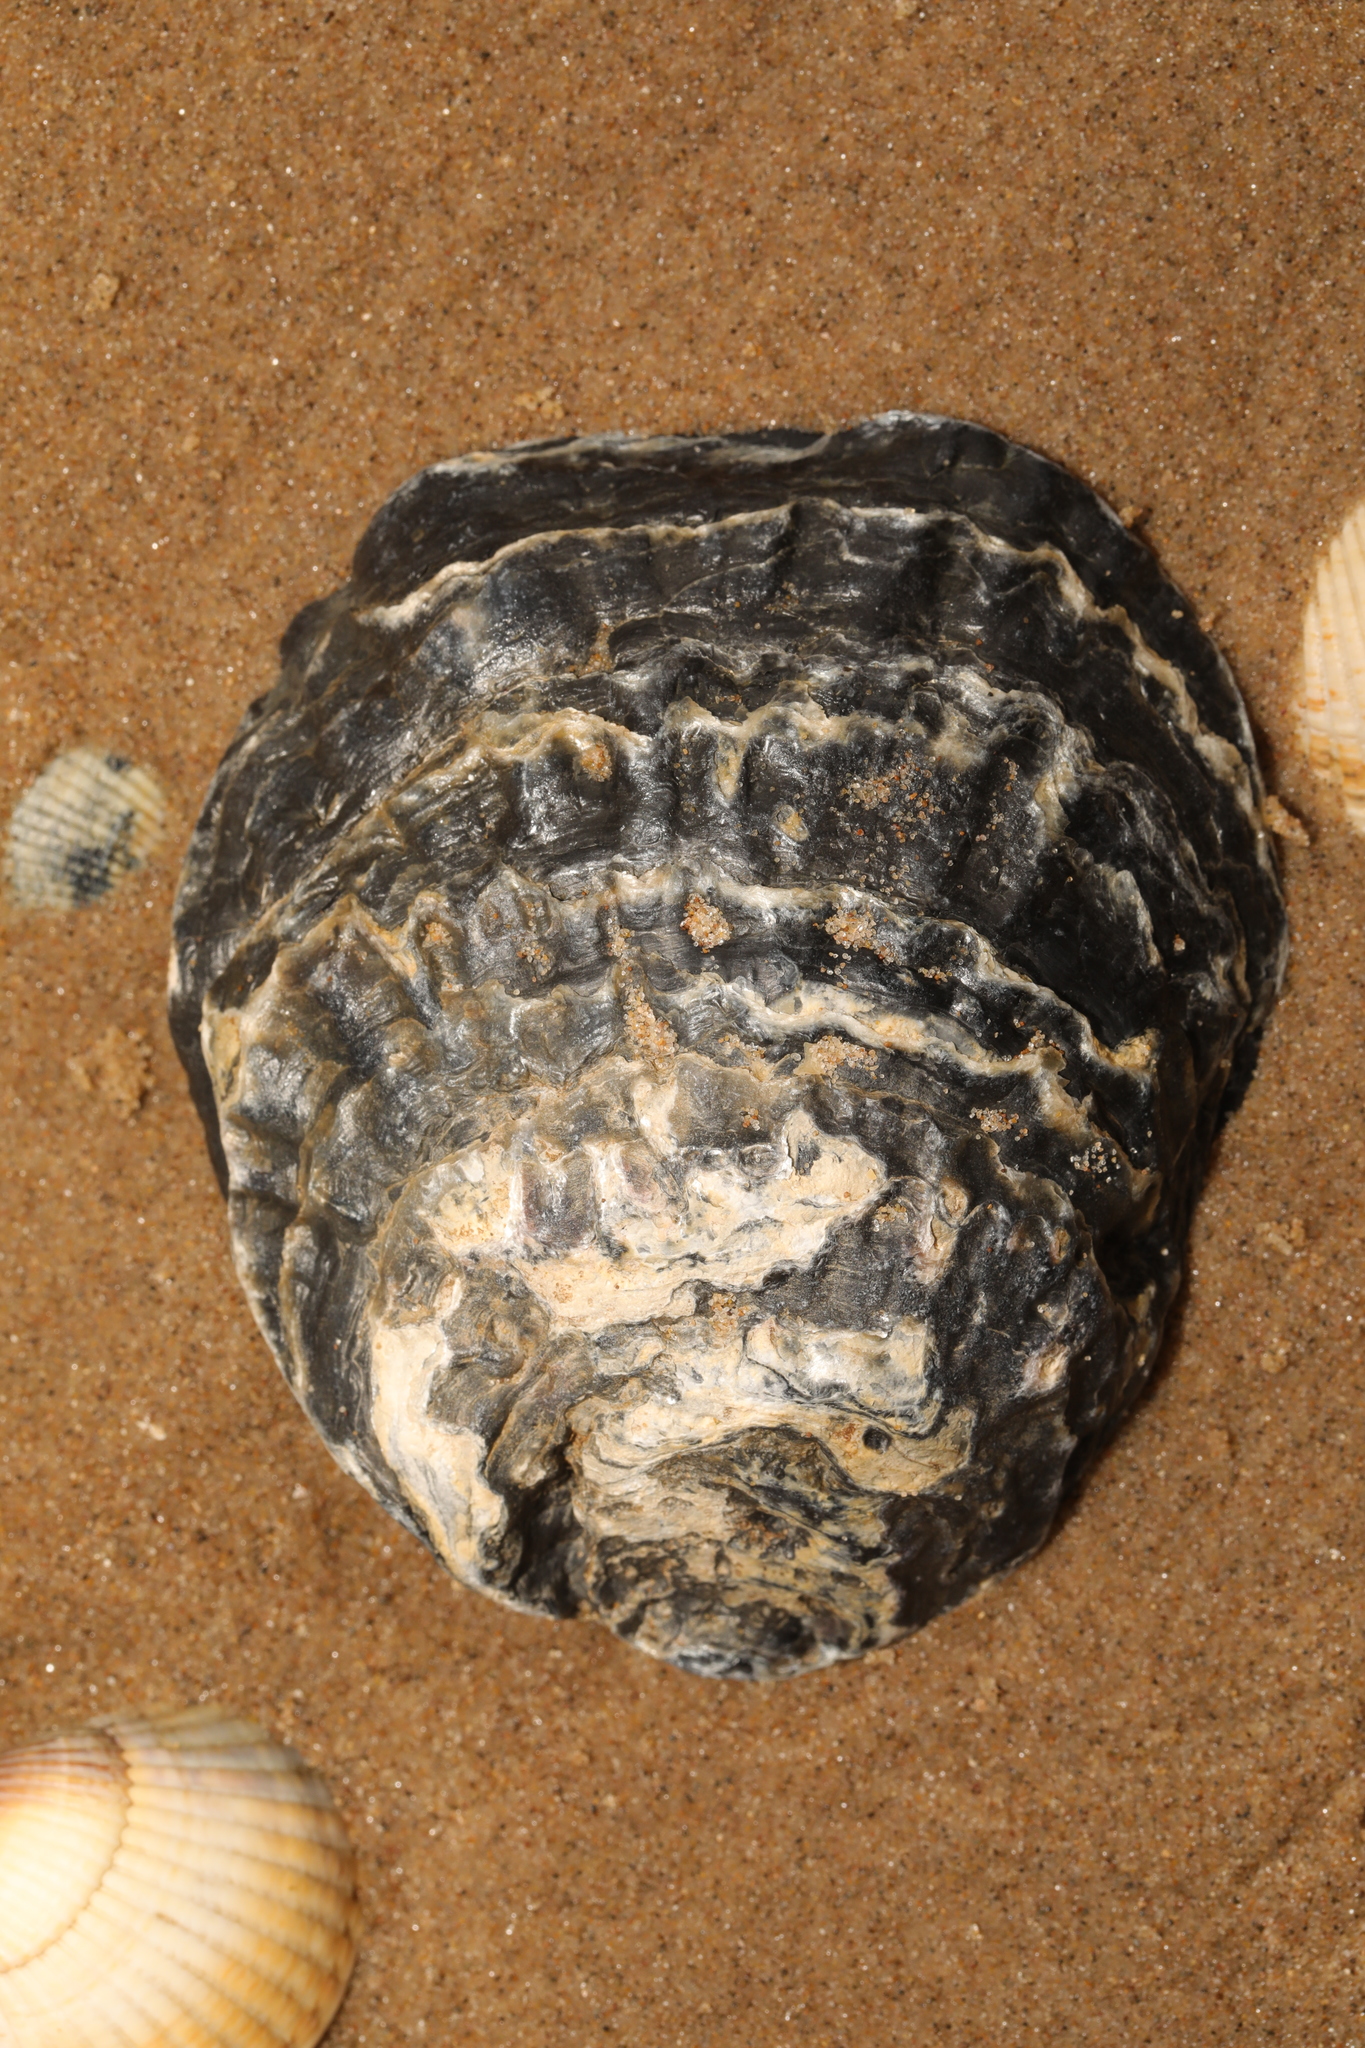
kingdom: Animalia
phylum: Mollusca
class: Bivalvia
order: Ostreida
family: Ostreidae
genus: Ostrea
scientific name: Ostrea edulis
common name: Flat oyster
